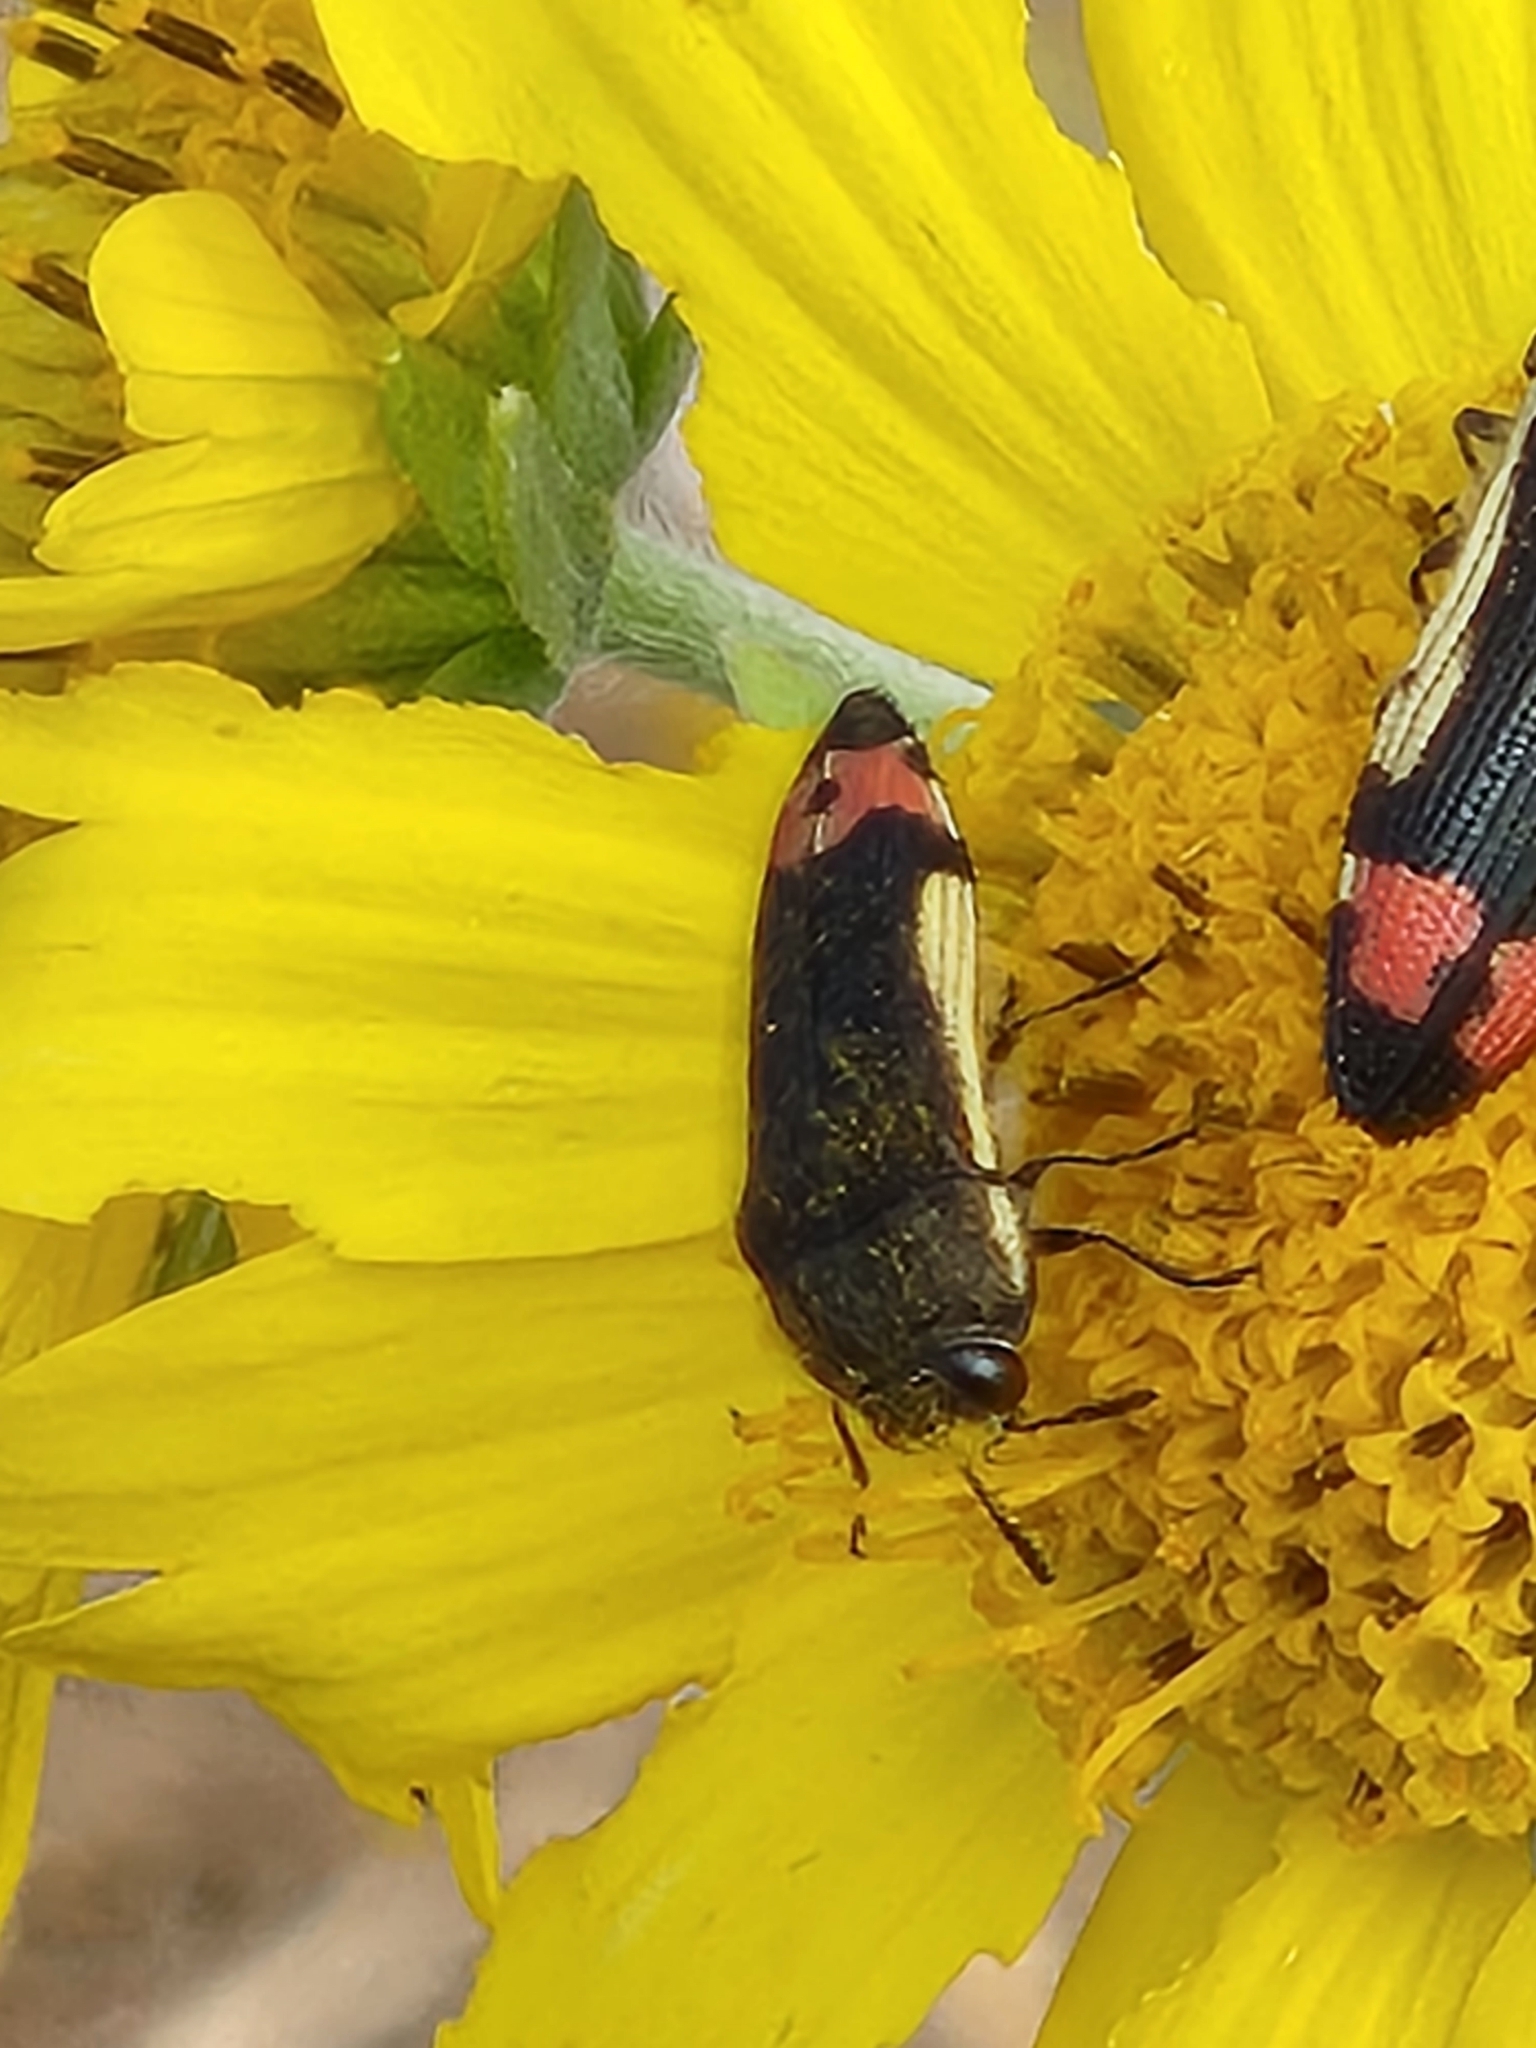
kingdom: Animalia
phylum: Arthropoda
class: Insecta
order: Coleoptera
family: Buprestidae
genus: Acmaeodera
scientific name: Acmaeodera flavomarginata
